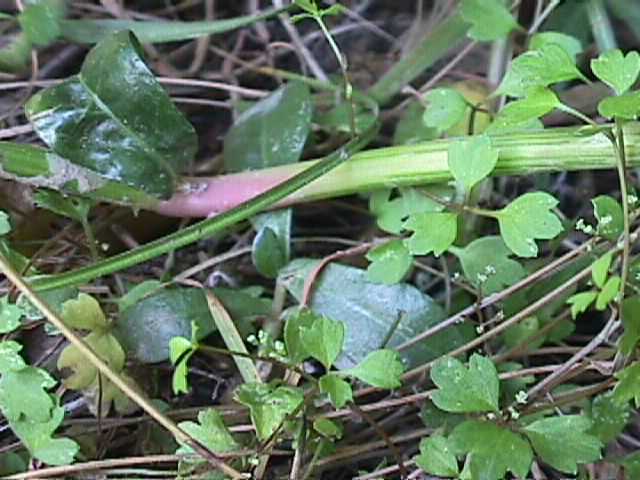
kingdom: Plantae
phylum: Tracheophyta
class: Magnoliopsida
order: Caryophyllales
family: Amaranthaceae
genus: Alternanthera
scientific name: Alternanthera philoxeroides
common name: Alligatorweed
